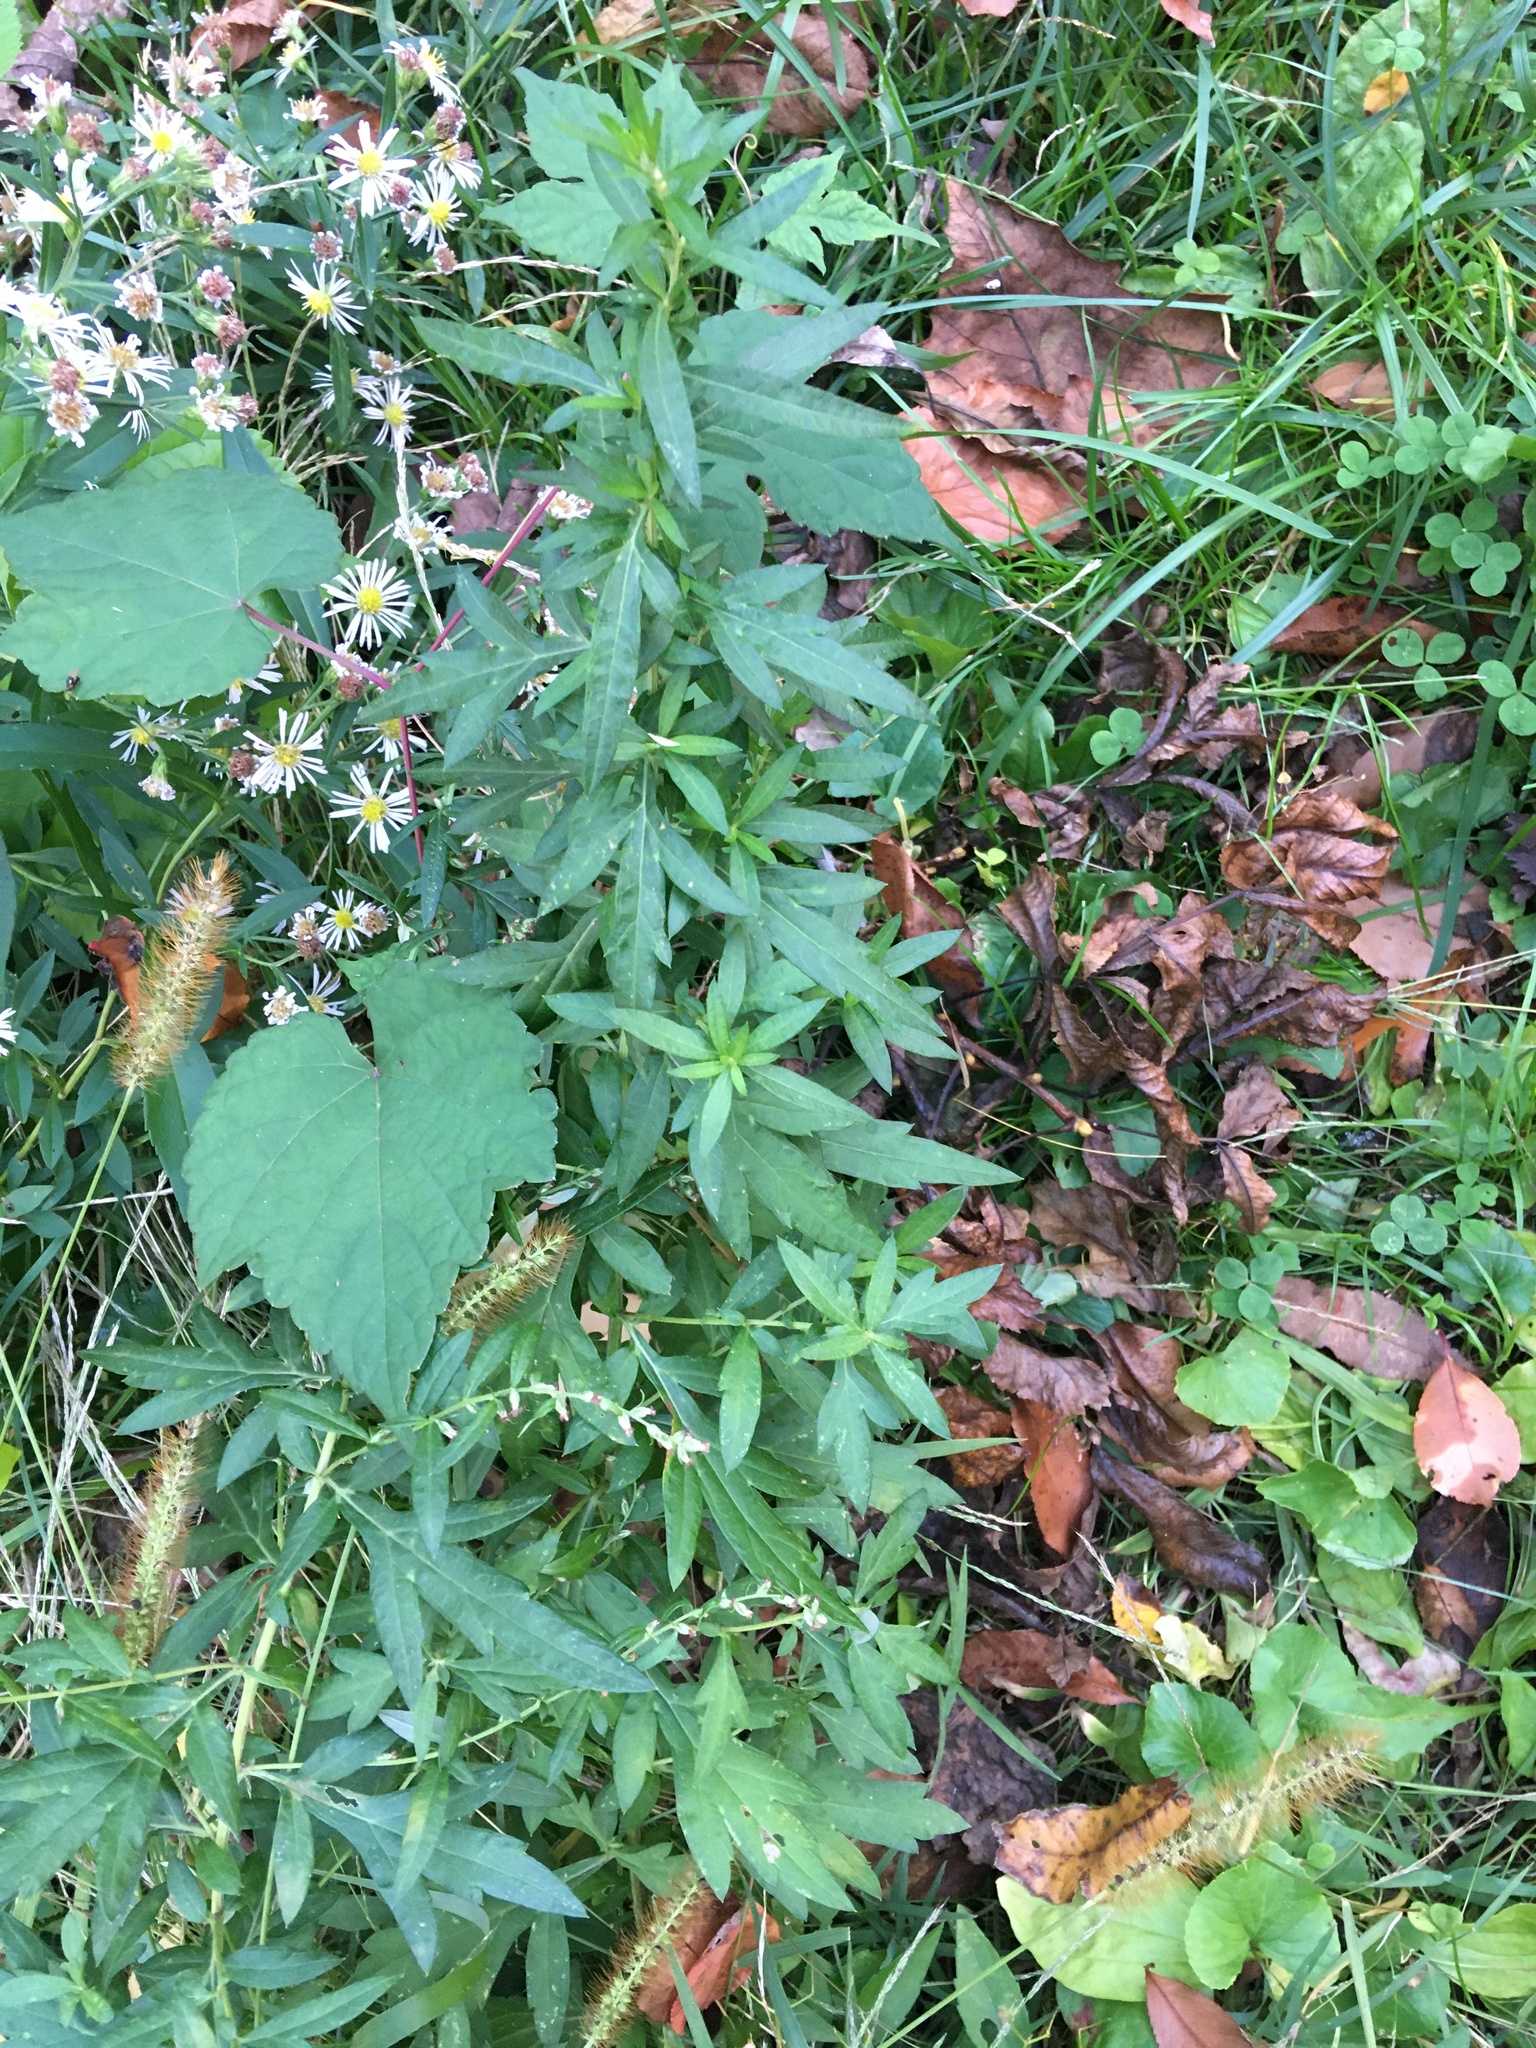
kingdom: Plantae
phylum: Tracheophyta
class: Magnoliopsida
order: Asterales
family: Asteraceae
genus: Artemisia
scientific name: Artemisia vulgaris
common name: Mugwort
